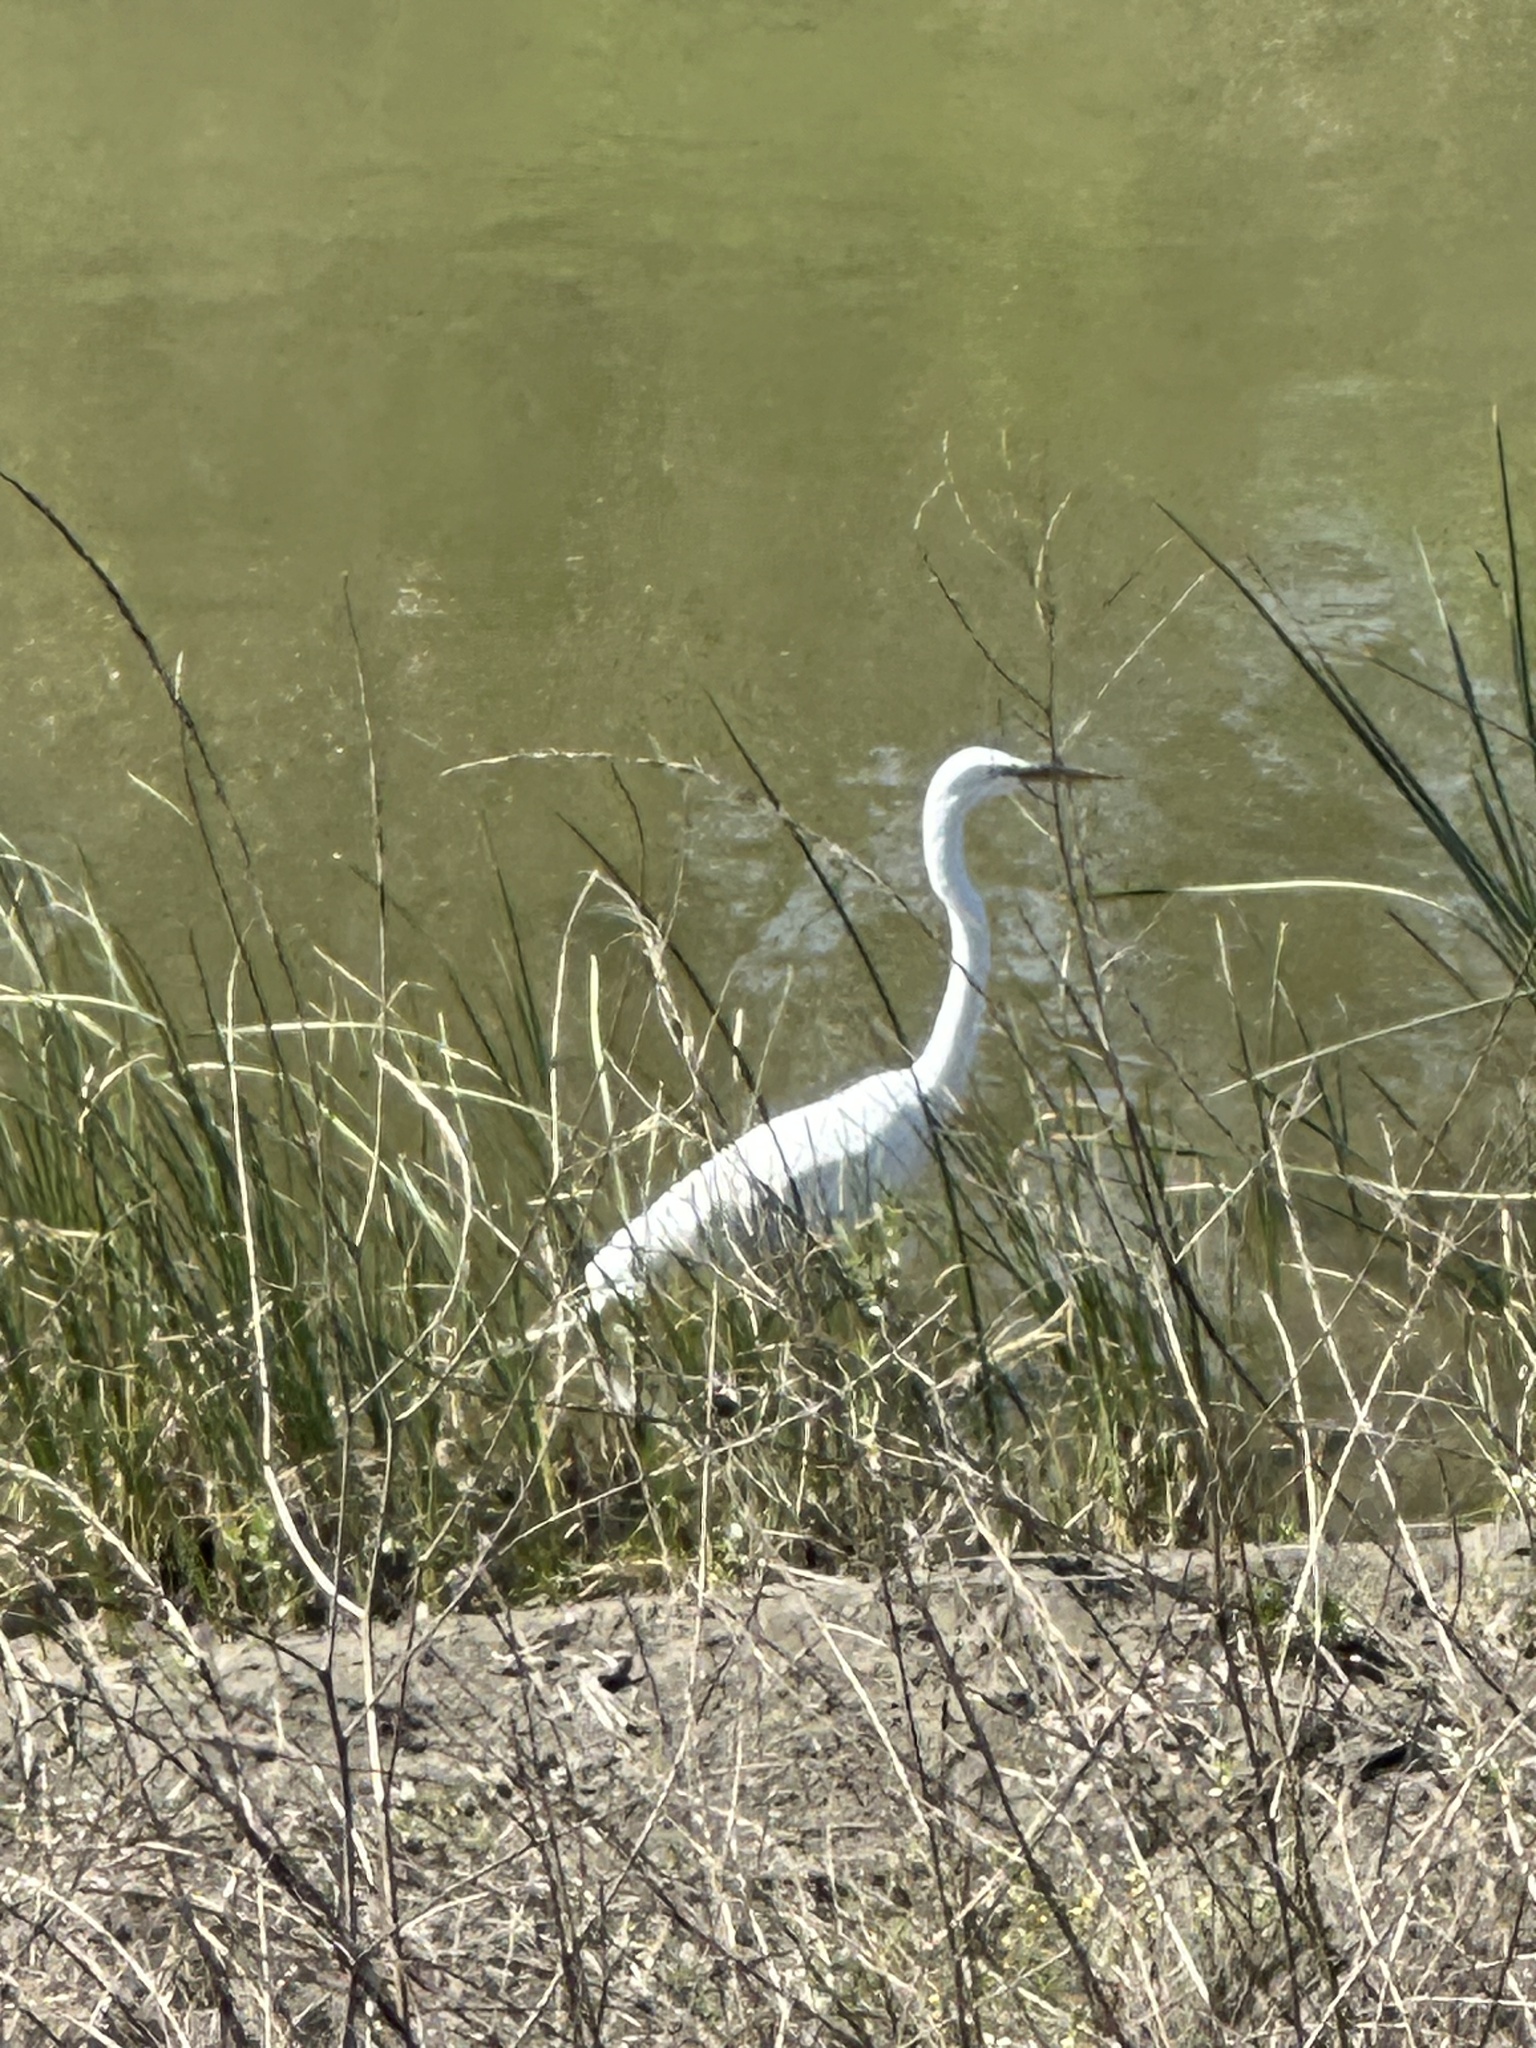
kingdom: Animalia
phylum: Chordata
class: Aves
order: Pelecaniformes
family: Ardeidae
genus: Ardea
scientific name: Ardea alba
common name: Great egret
